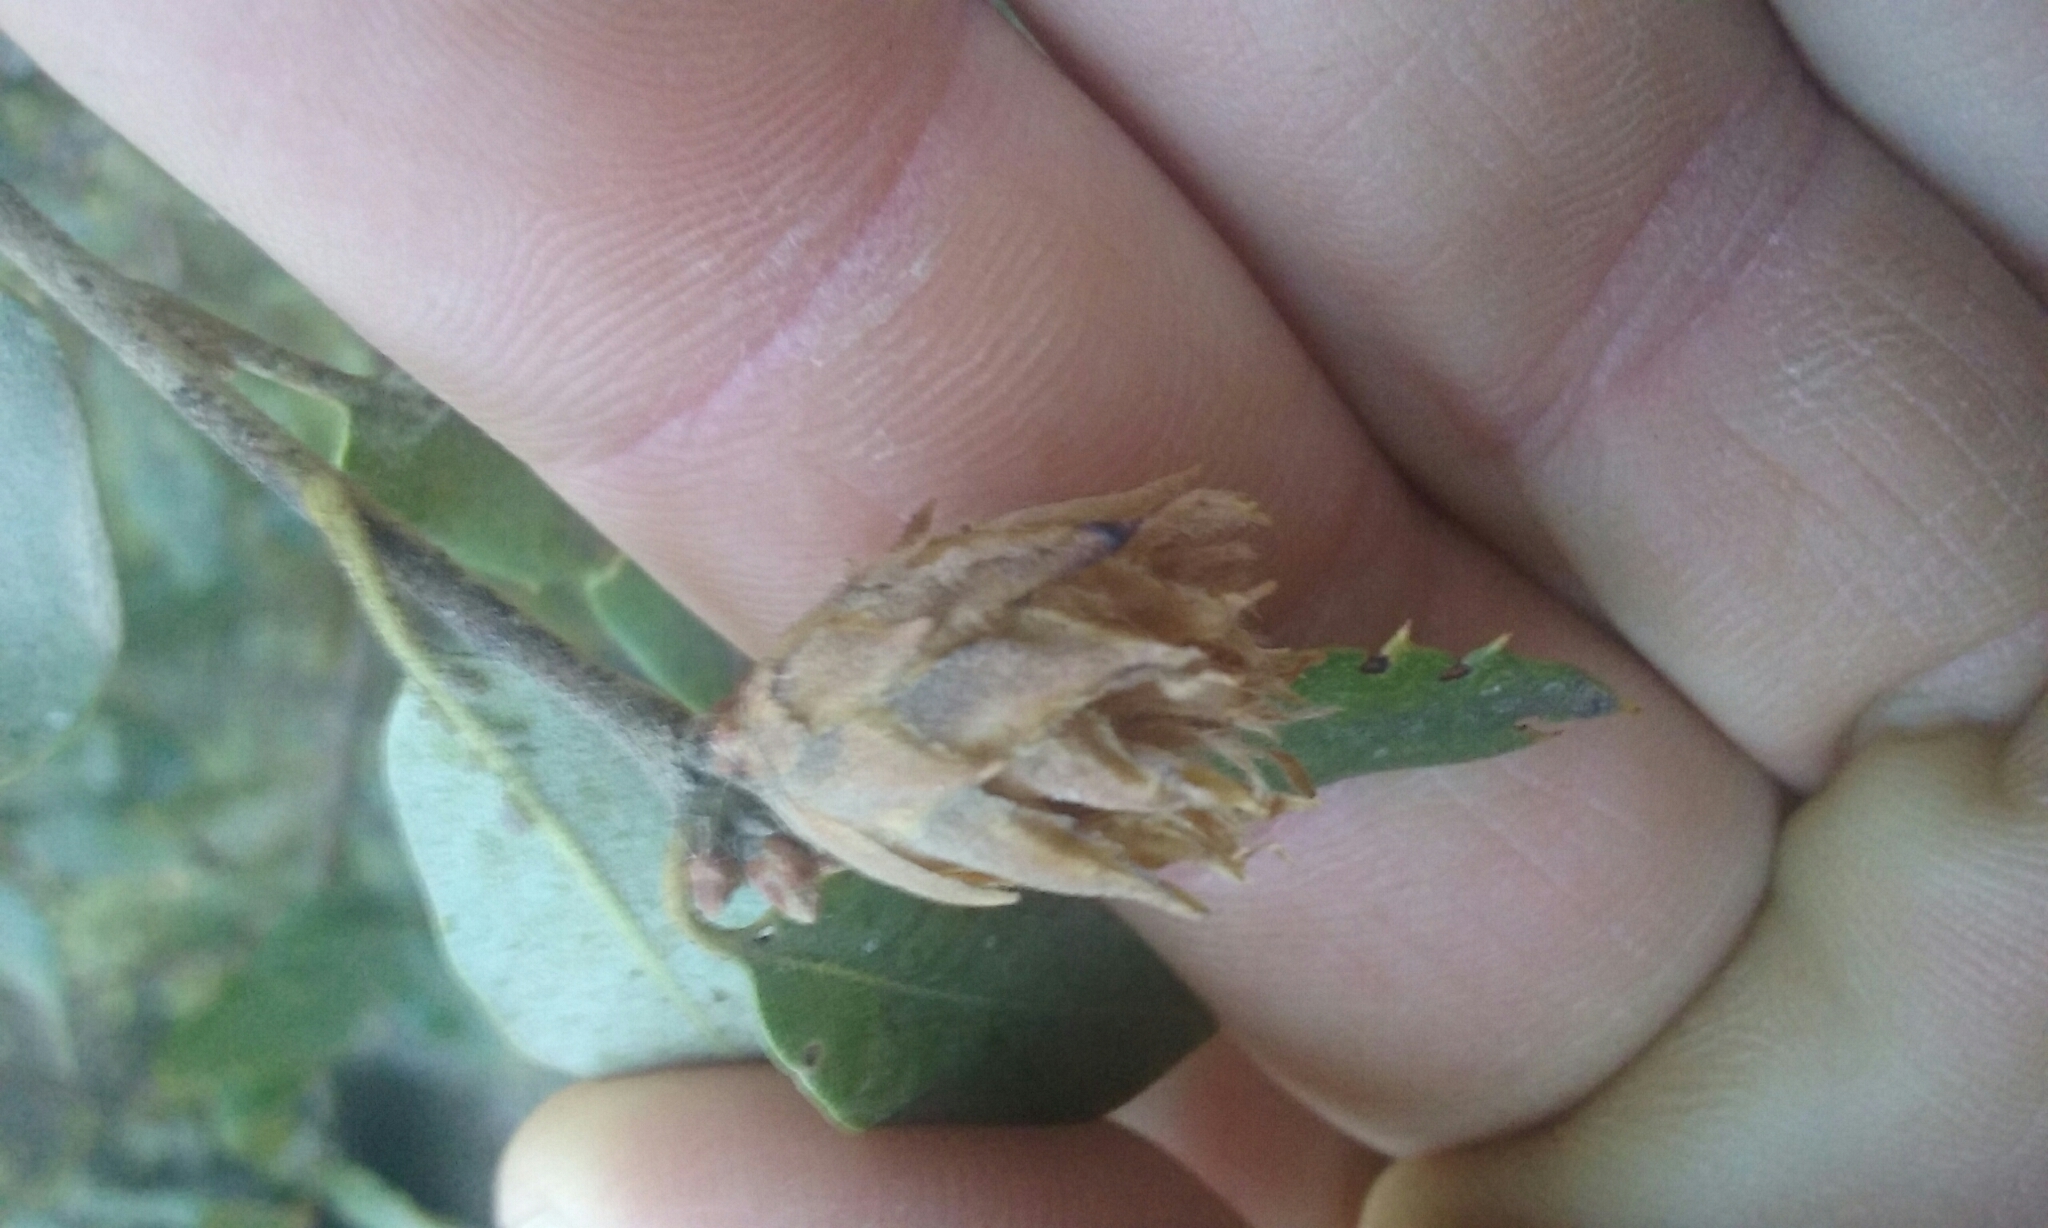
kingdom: Animalia
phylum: Arthropoda
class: Insecta
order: Hymenoptera
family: Cynipidae
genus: Andricus
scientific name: Andricus
